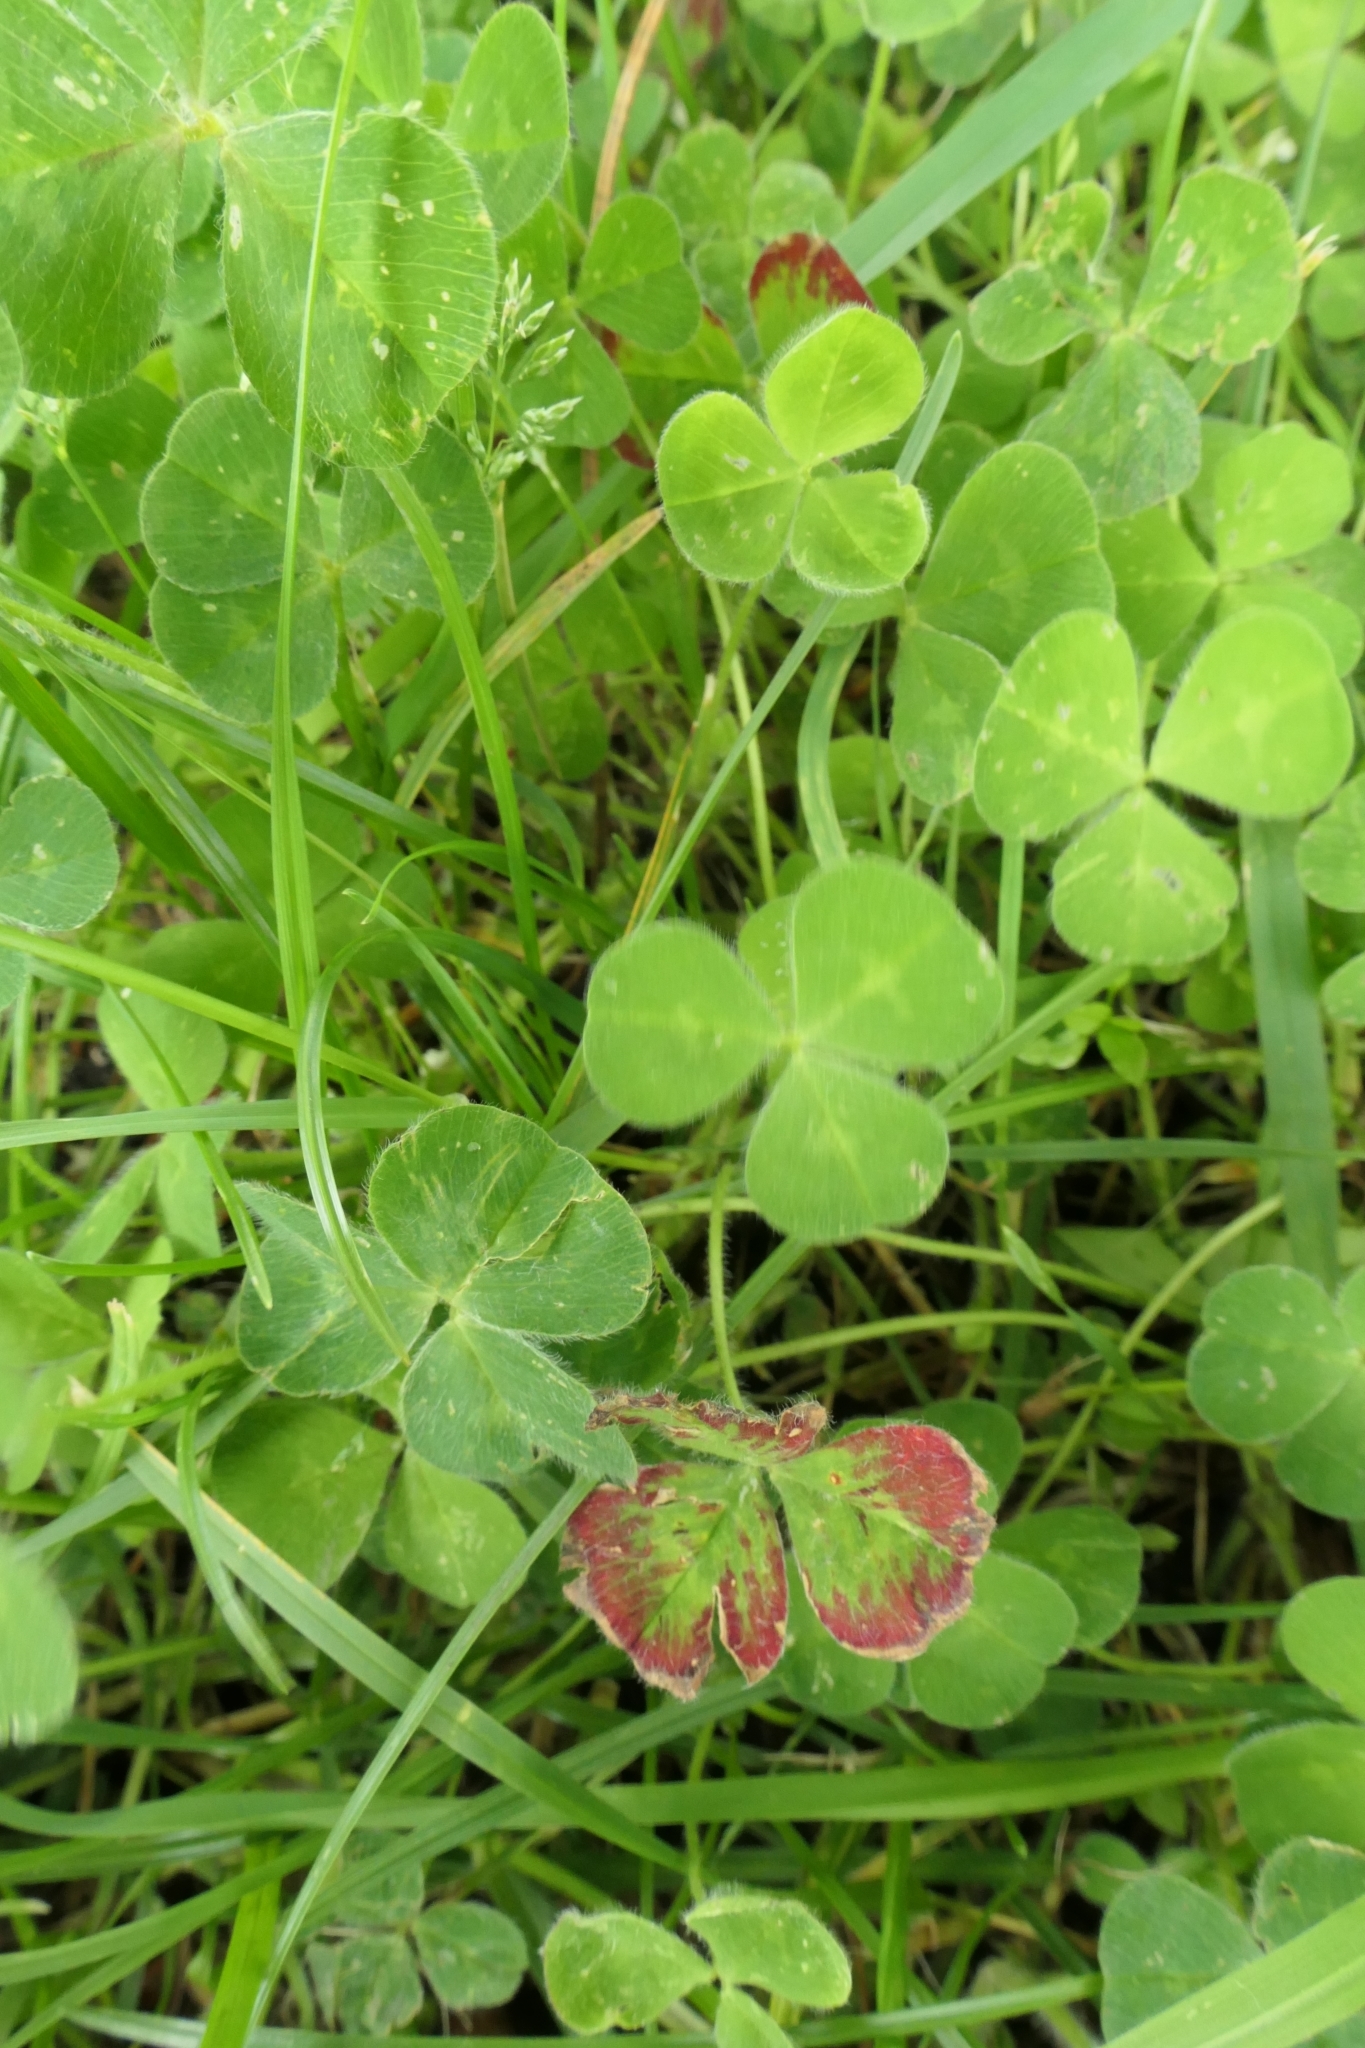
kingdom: Plantae
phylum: Tracheophyta
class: Magnoliopsida
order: Fabales
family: Fabaceae
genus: Trifolium
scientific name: Trifolium subterraneum
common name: Subterranean clover
